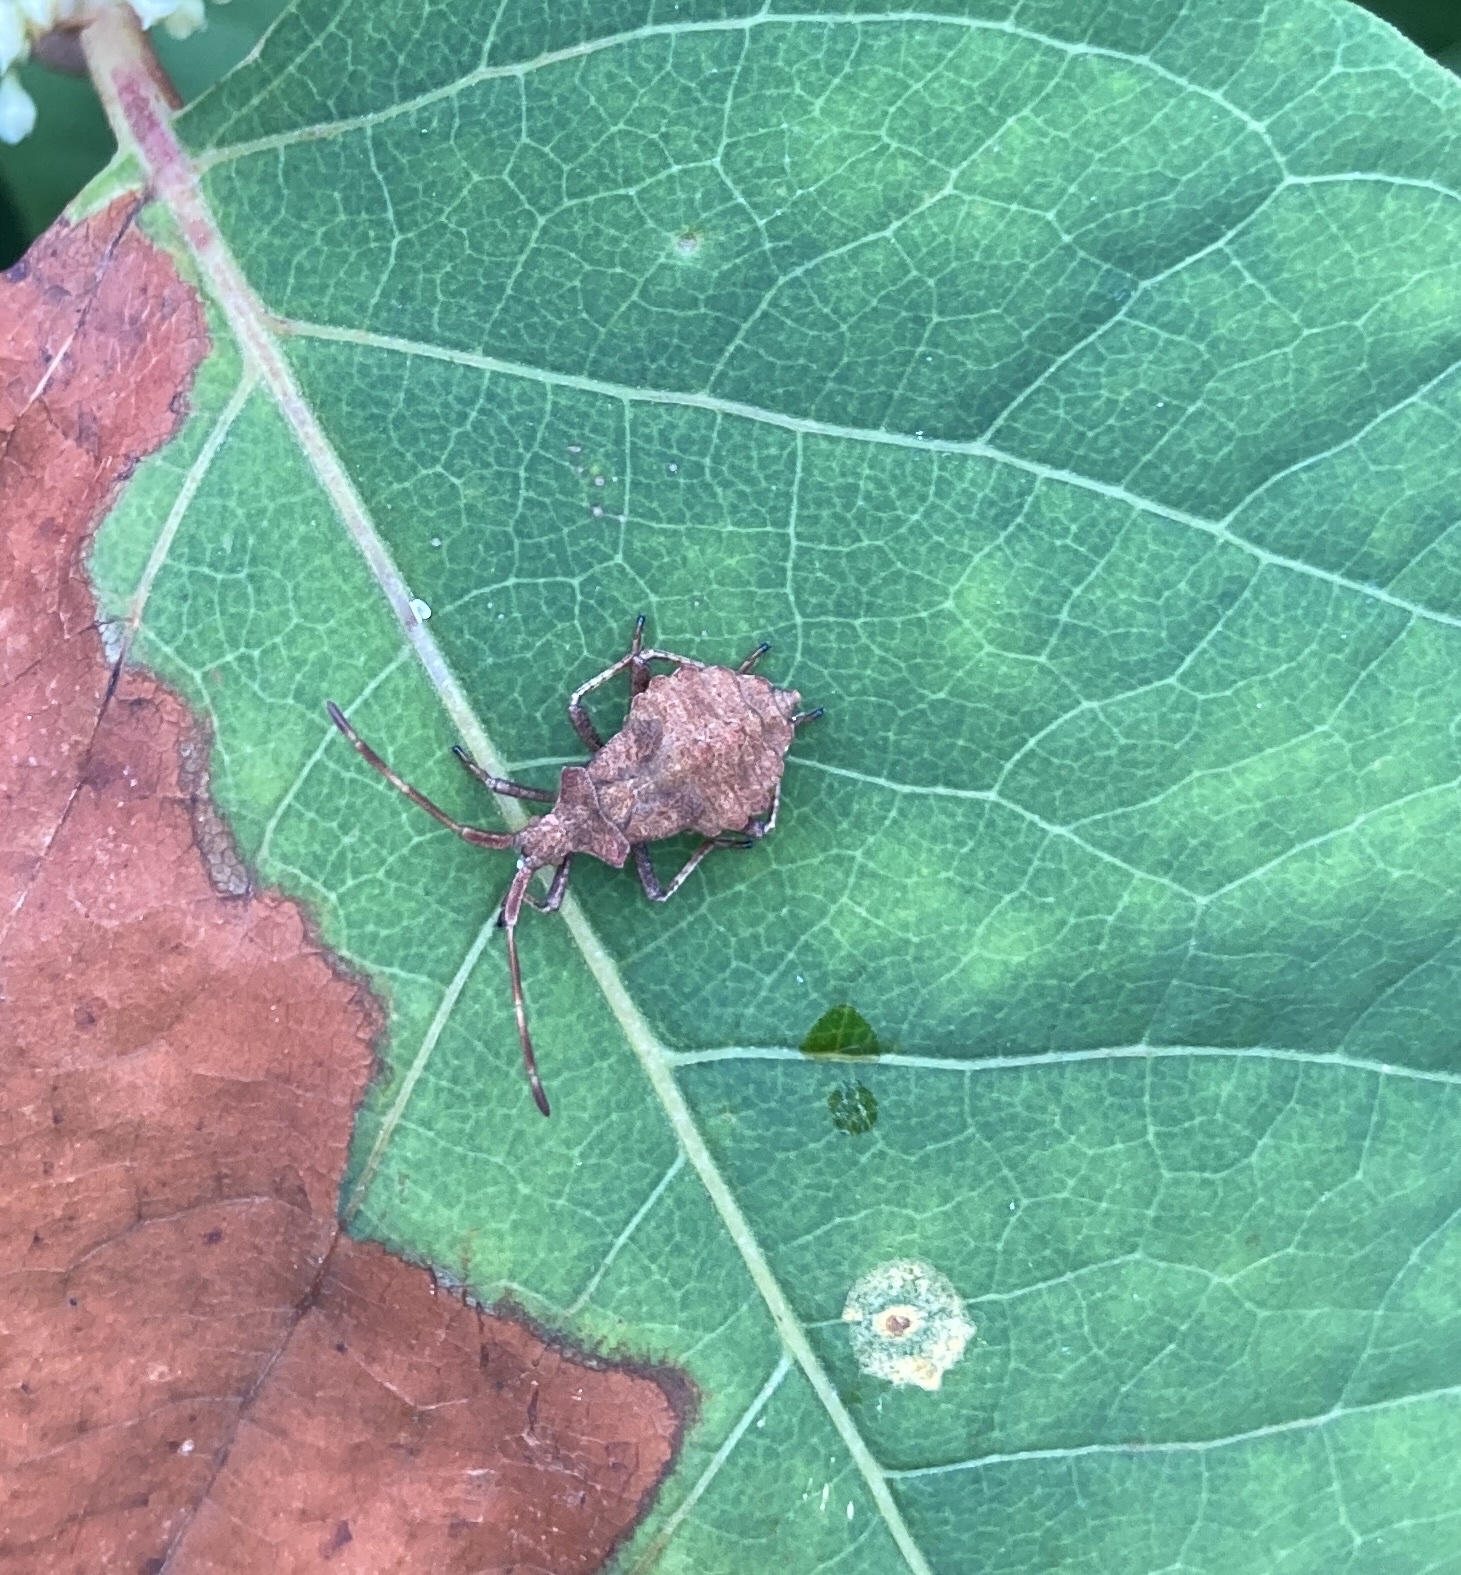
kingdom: Animalia
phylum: Arthropoda
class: Insecta
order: Hemiptera
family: Coreidae
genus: Coreus
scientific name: Coreus marginatus
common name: Dock bug
